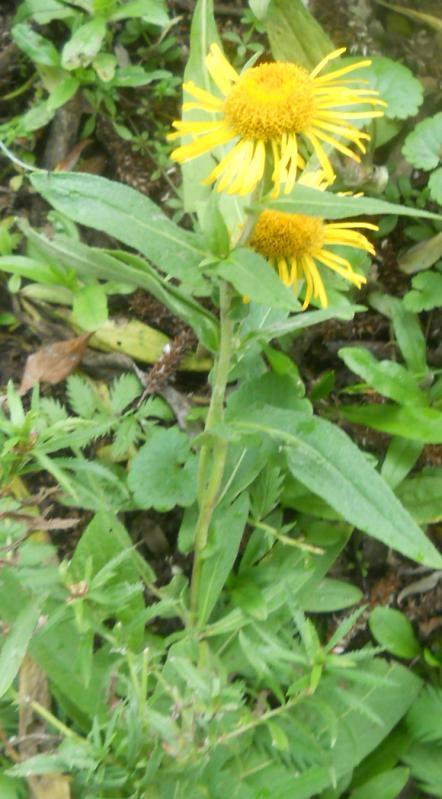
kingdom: Plantae
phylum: Tracheophyta
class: Magnoliopsida
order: Asterales
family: Asteraceae
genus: Pentanema
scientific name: Pentanema britannicum
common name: British elecampane
